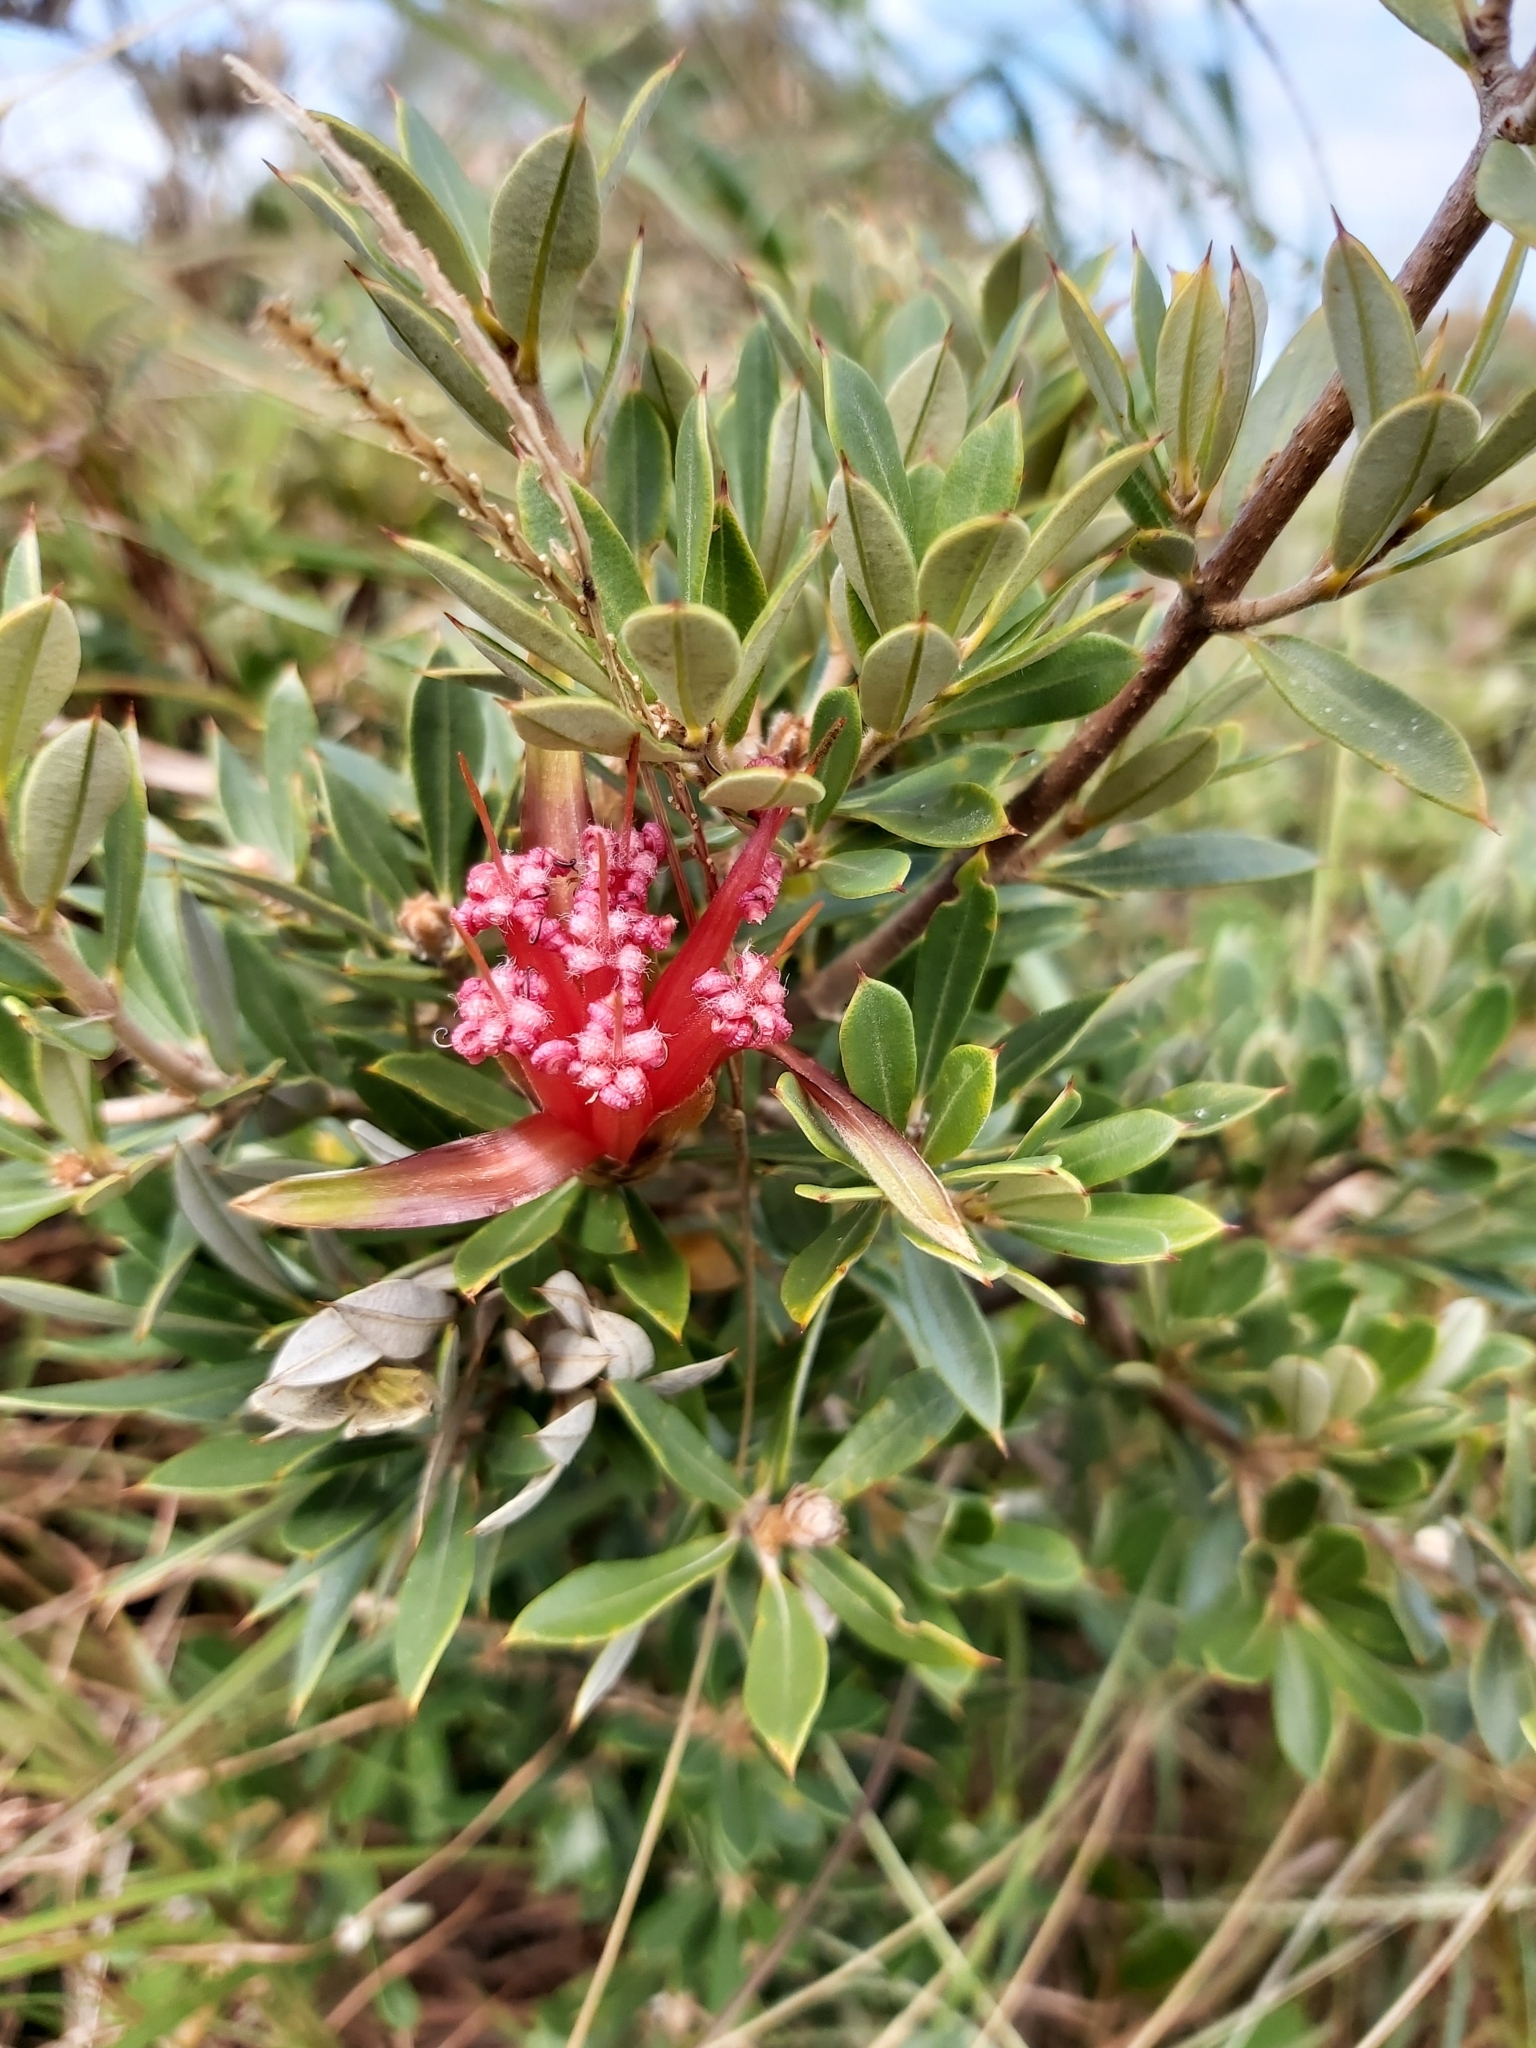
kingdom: Plantae
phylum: Tracheophyta
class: Magnoliopsida
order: Proteales
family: Proteaceae
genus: Lambertia
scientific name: Lambertia formosa
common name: Mountain-devil
